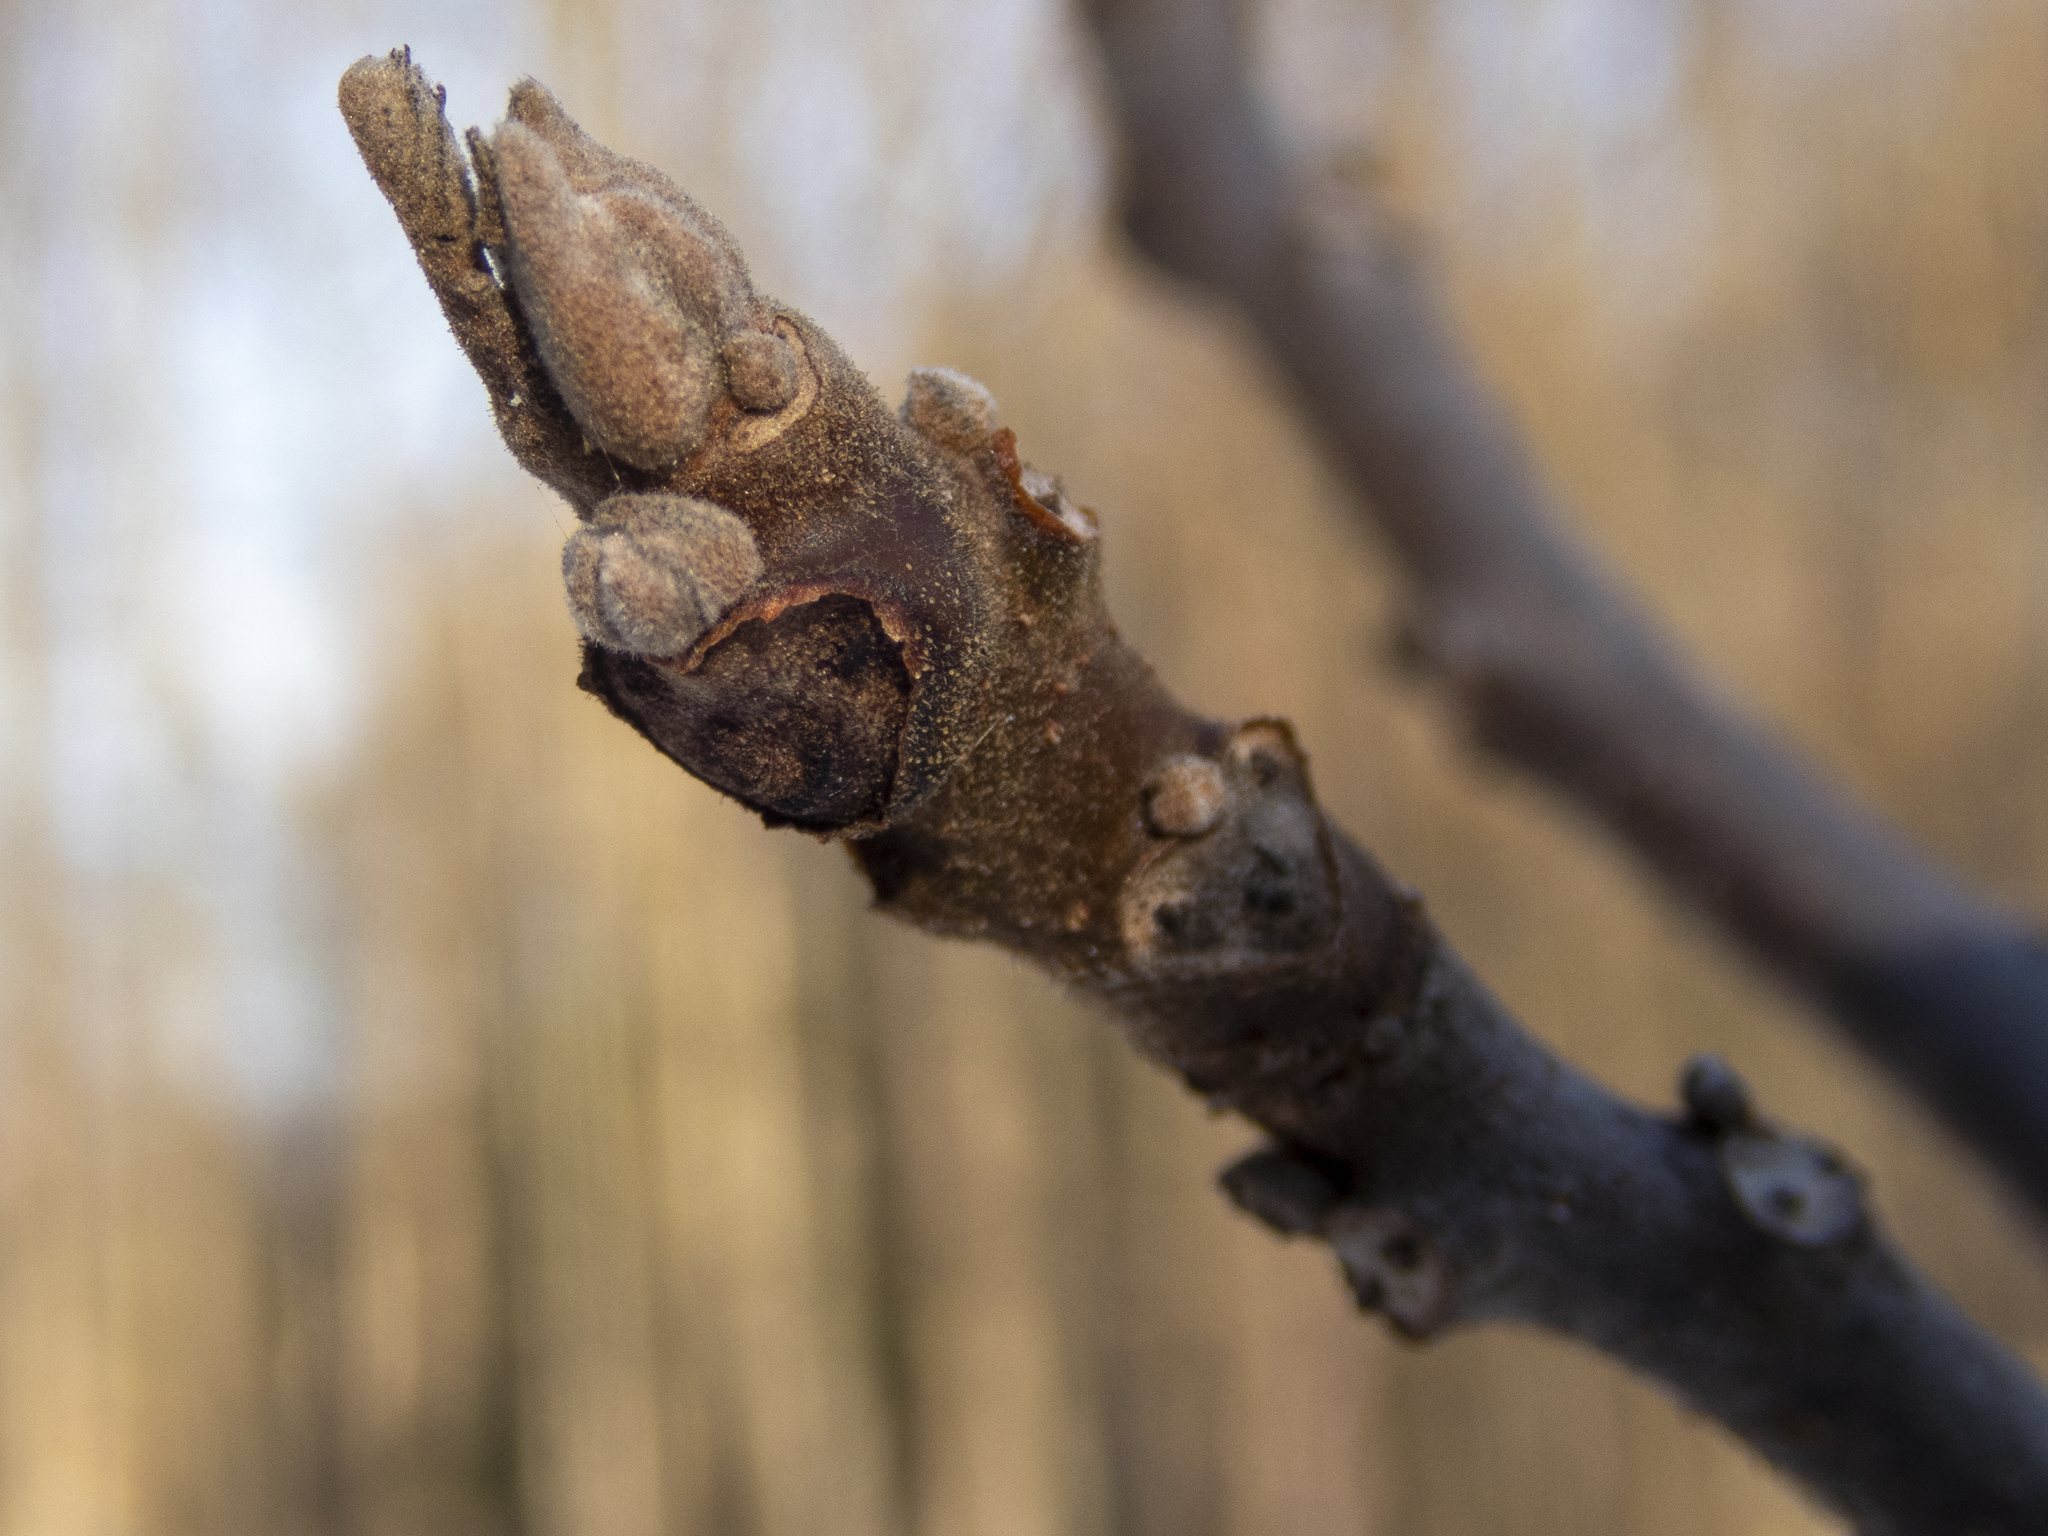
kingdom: Plantae
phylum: Tracheophyta
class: Magnoliopsida
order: Fagales
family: Juglandaceae
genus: Juglans
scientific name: Juglans nigra
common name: Black walnut
